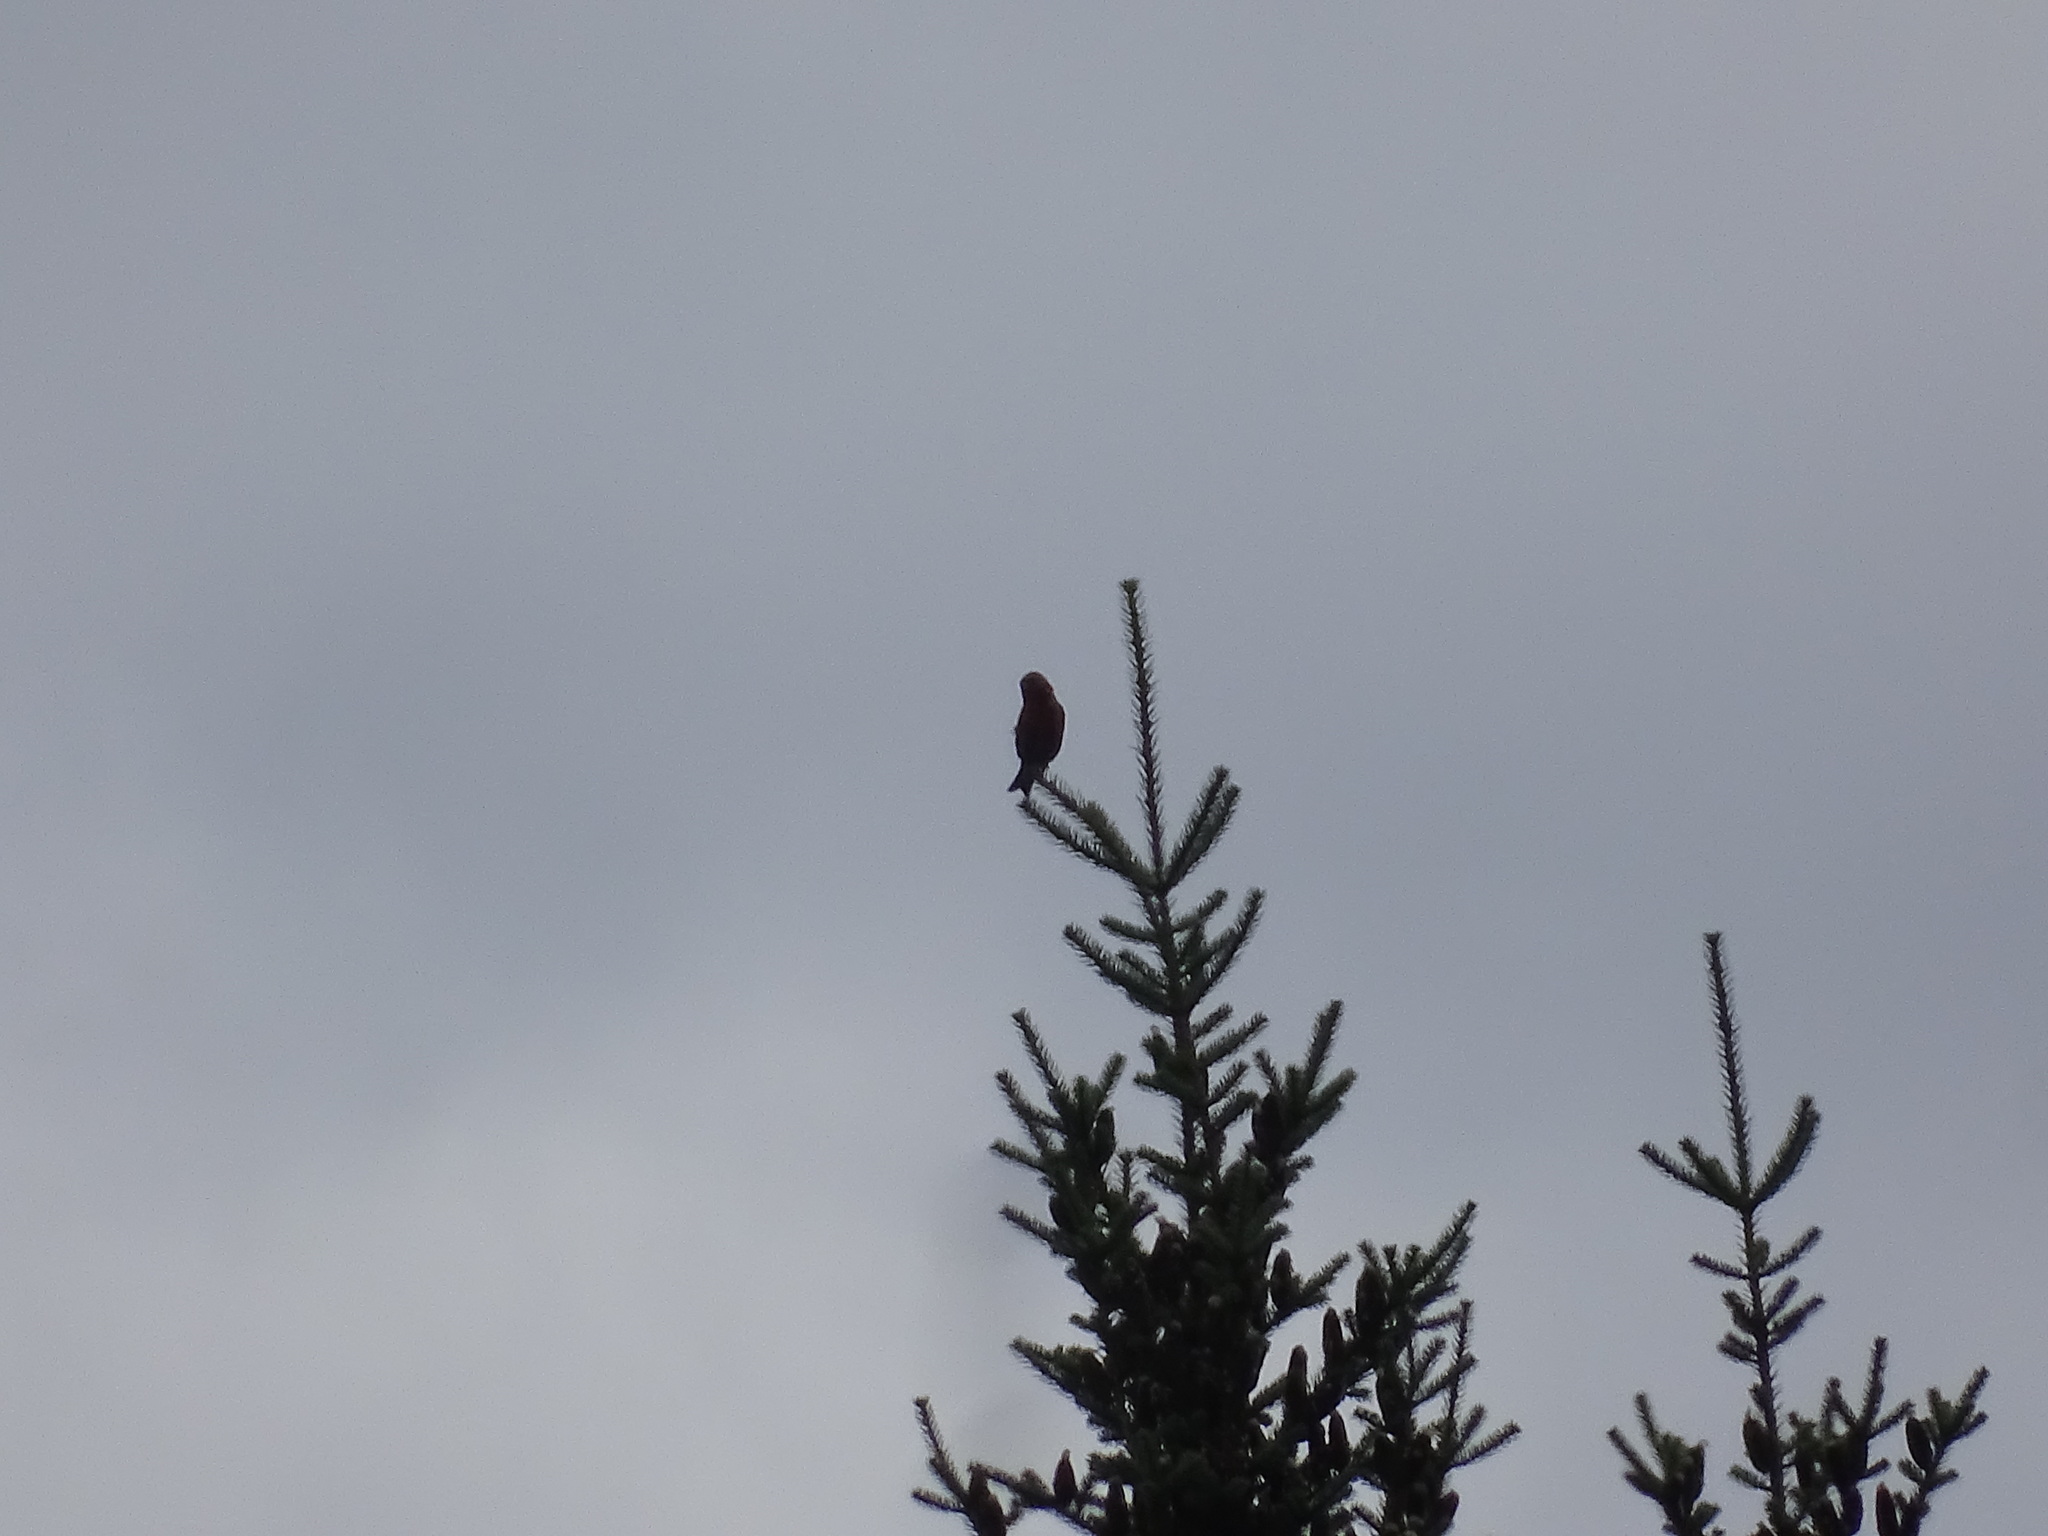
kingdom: Animalia
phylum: Chordata
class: Aves
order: Passeriformes
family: Fringillidae
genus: Loxia
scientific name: Loxia leucoptera
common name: Two-barred crossbill
